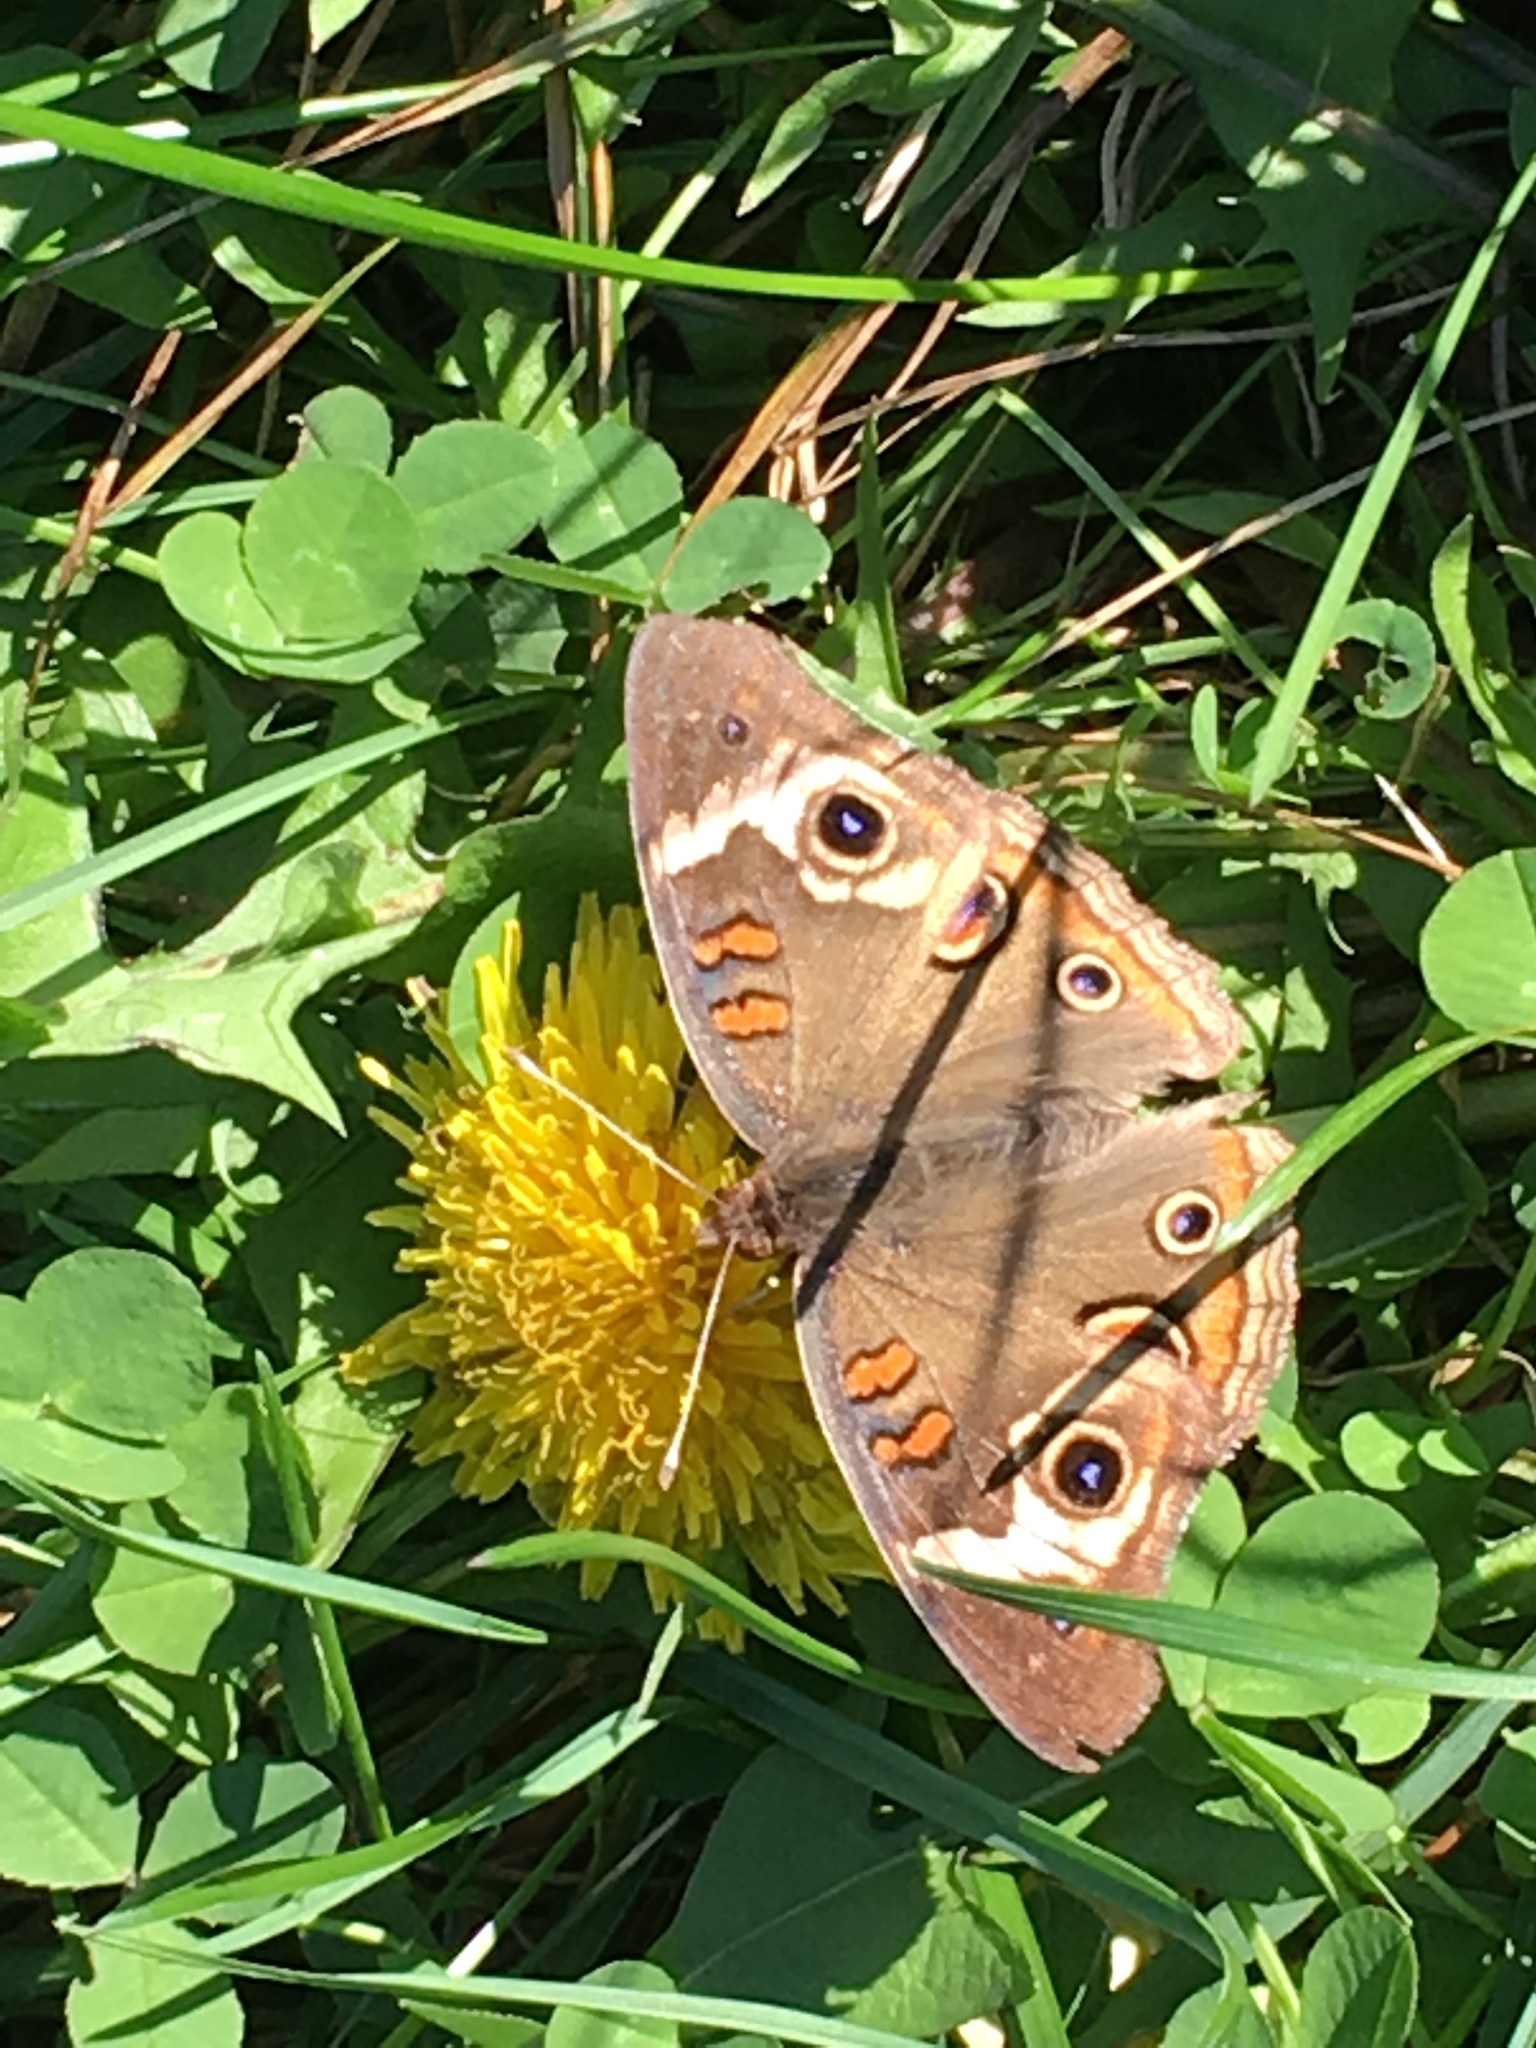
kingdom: Animalia
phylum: Arthropoda
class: Insecta
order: Lepidoptera
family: Nymphalidae
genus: Junonia
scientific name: Junonia coenia
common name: Common buckeye
